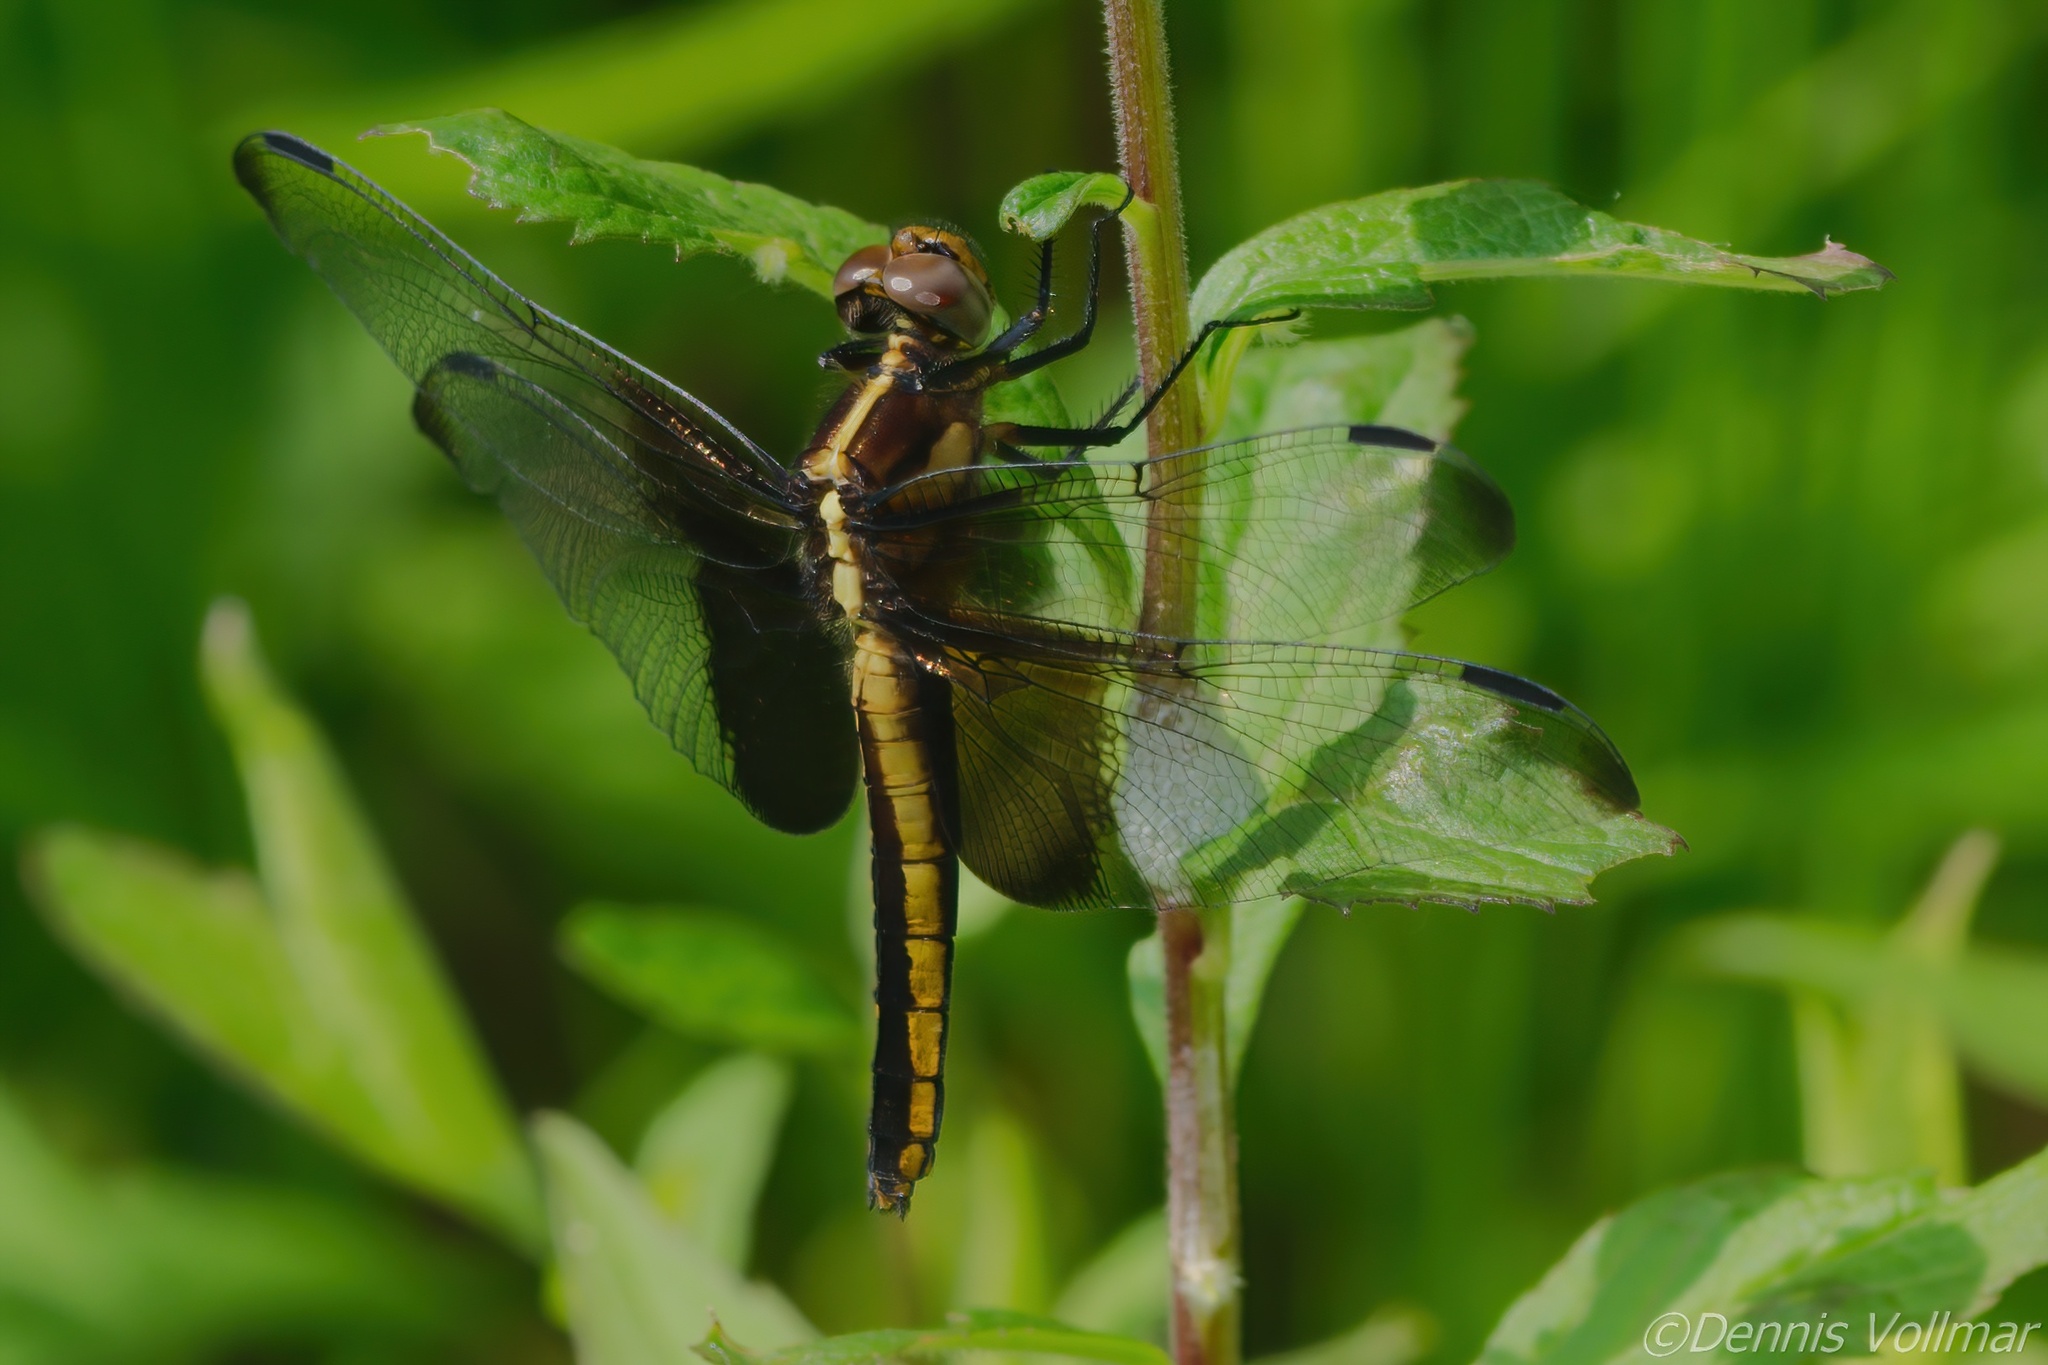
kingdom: Animalia
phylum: Arthropoda
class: Insecta
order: Odonata
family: Libellulidae
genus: Libellula
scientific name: Libellula luctuosa
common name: Widow skimmer
